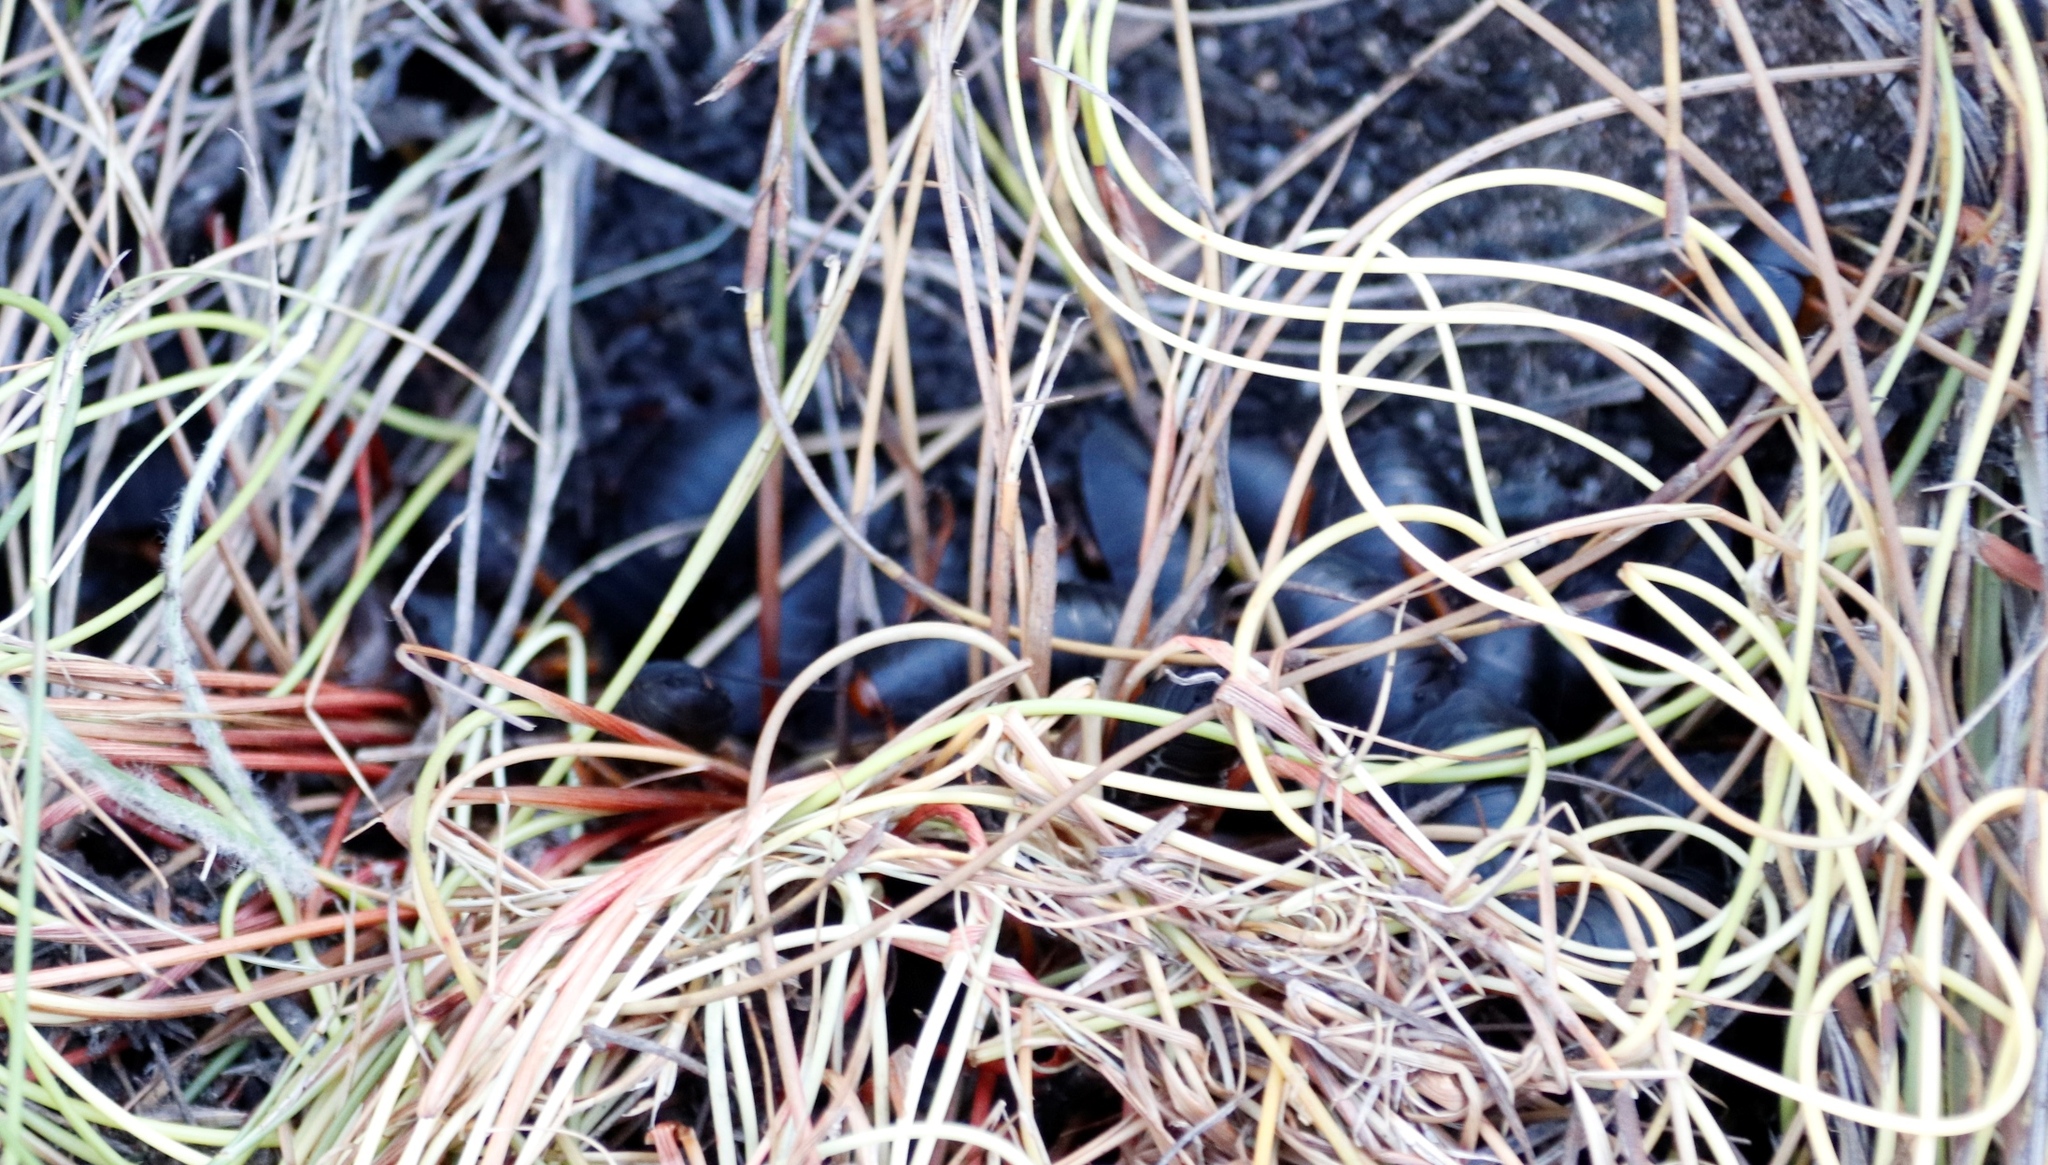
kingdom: Animalia
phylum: Arthropoda
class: Insecta
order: Blattodea
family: Blattidae
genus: Deropeltis
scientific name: Deropeltis erythrocephala
